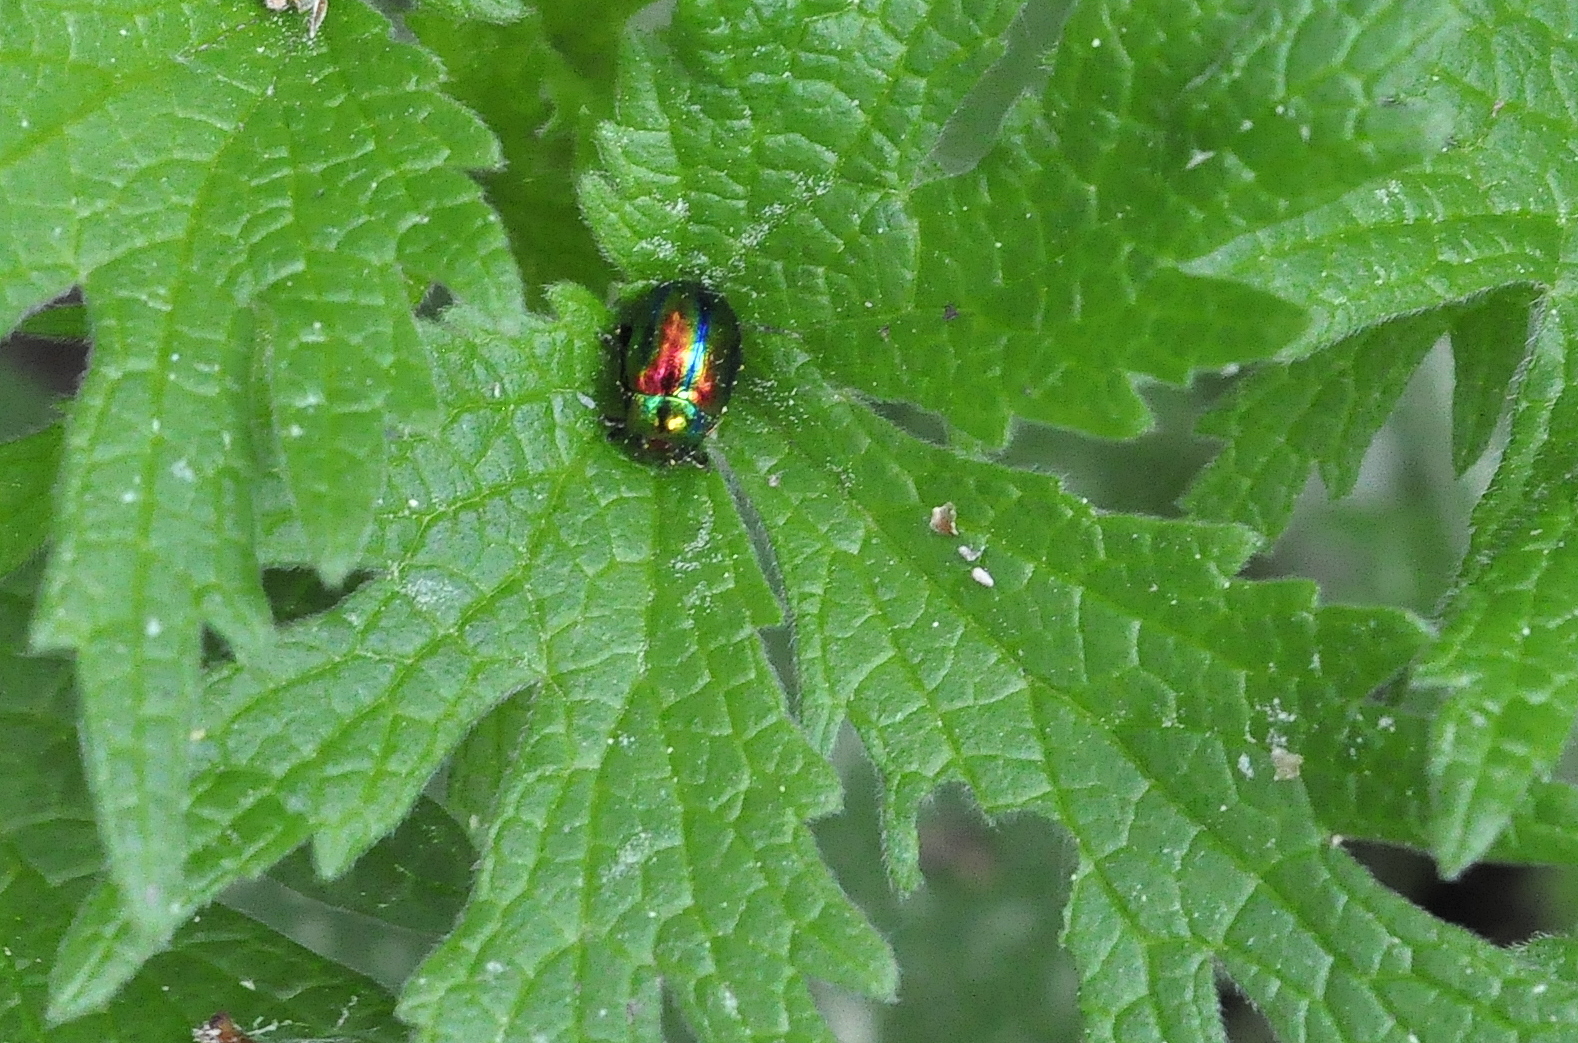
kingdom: Animalia
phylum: Arthropoda
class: Insecta
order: Coleoptera
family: Chrysomelidae
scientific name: Chrysomelidae
